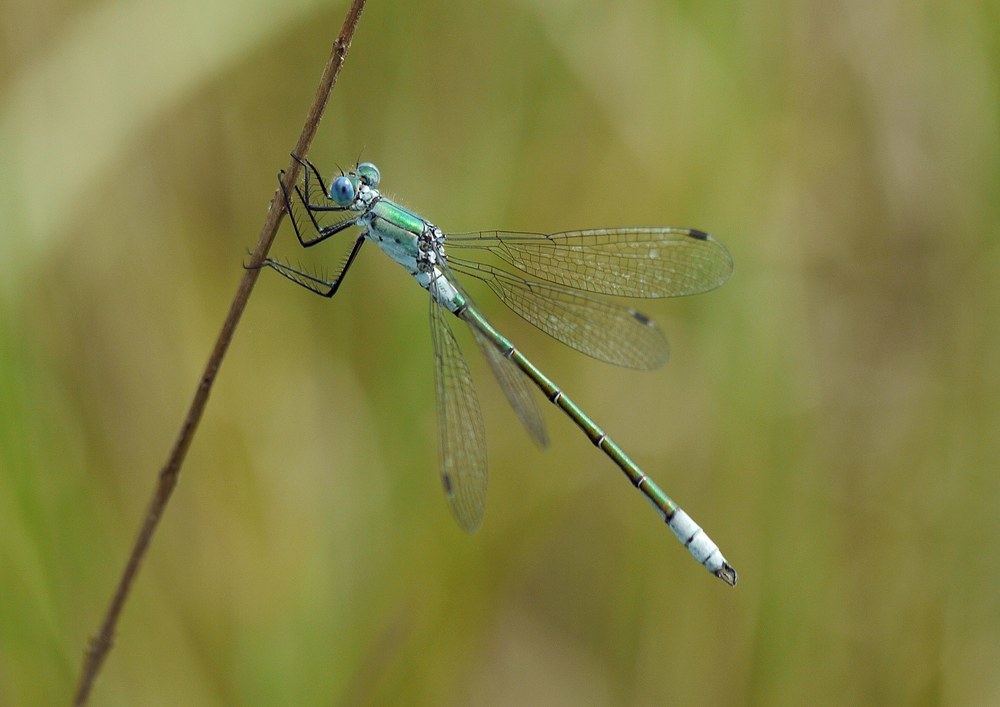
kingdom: Animalia
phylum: Arthropoda
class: Insecta
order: Odonata
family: Lestidae
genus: Lestes
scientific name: Lestes dryas
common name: Scarce emerald damselfly
